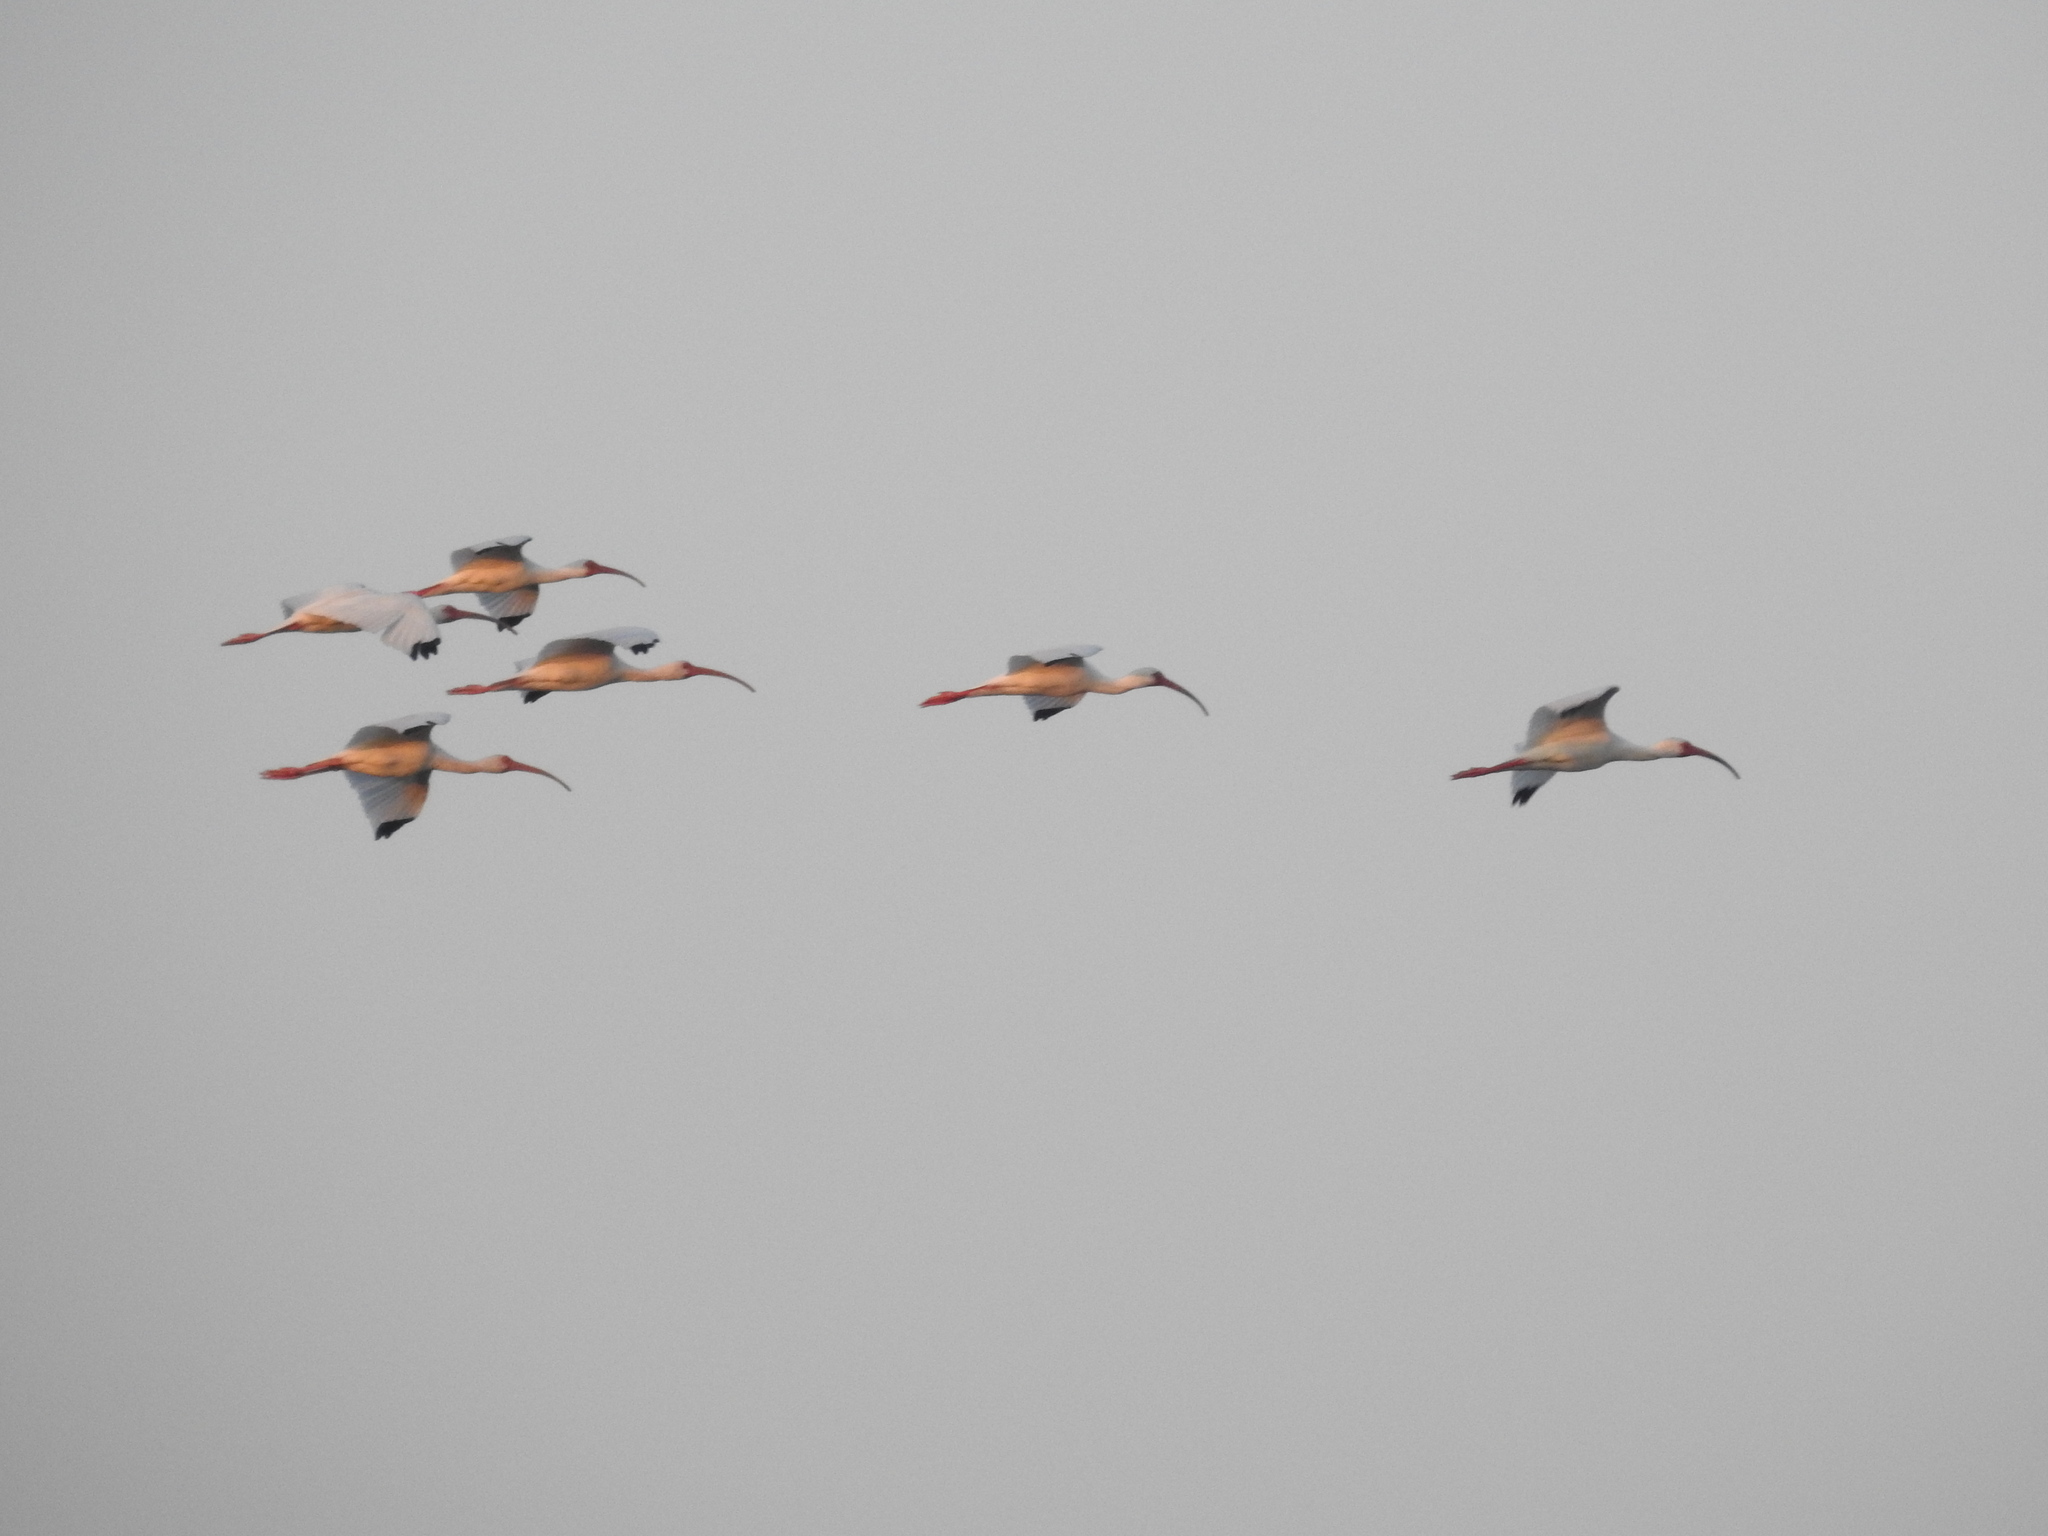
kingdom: Animalia
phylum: Chordata
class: Aves
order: Pelecaniformes
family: Threskiornithidae
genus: Eudocimus
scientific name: Eudocimus albus
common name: White ibis
